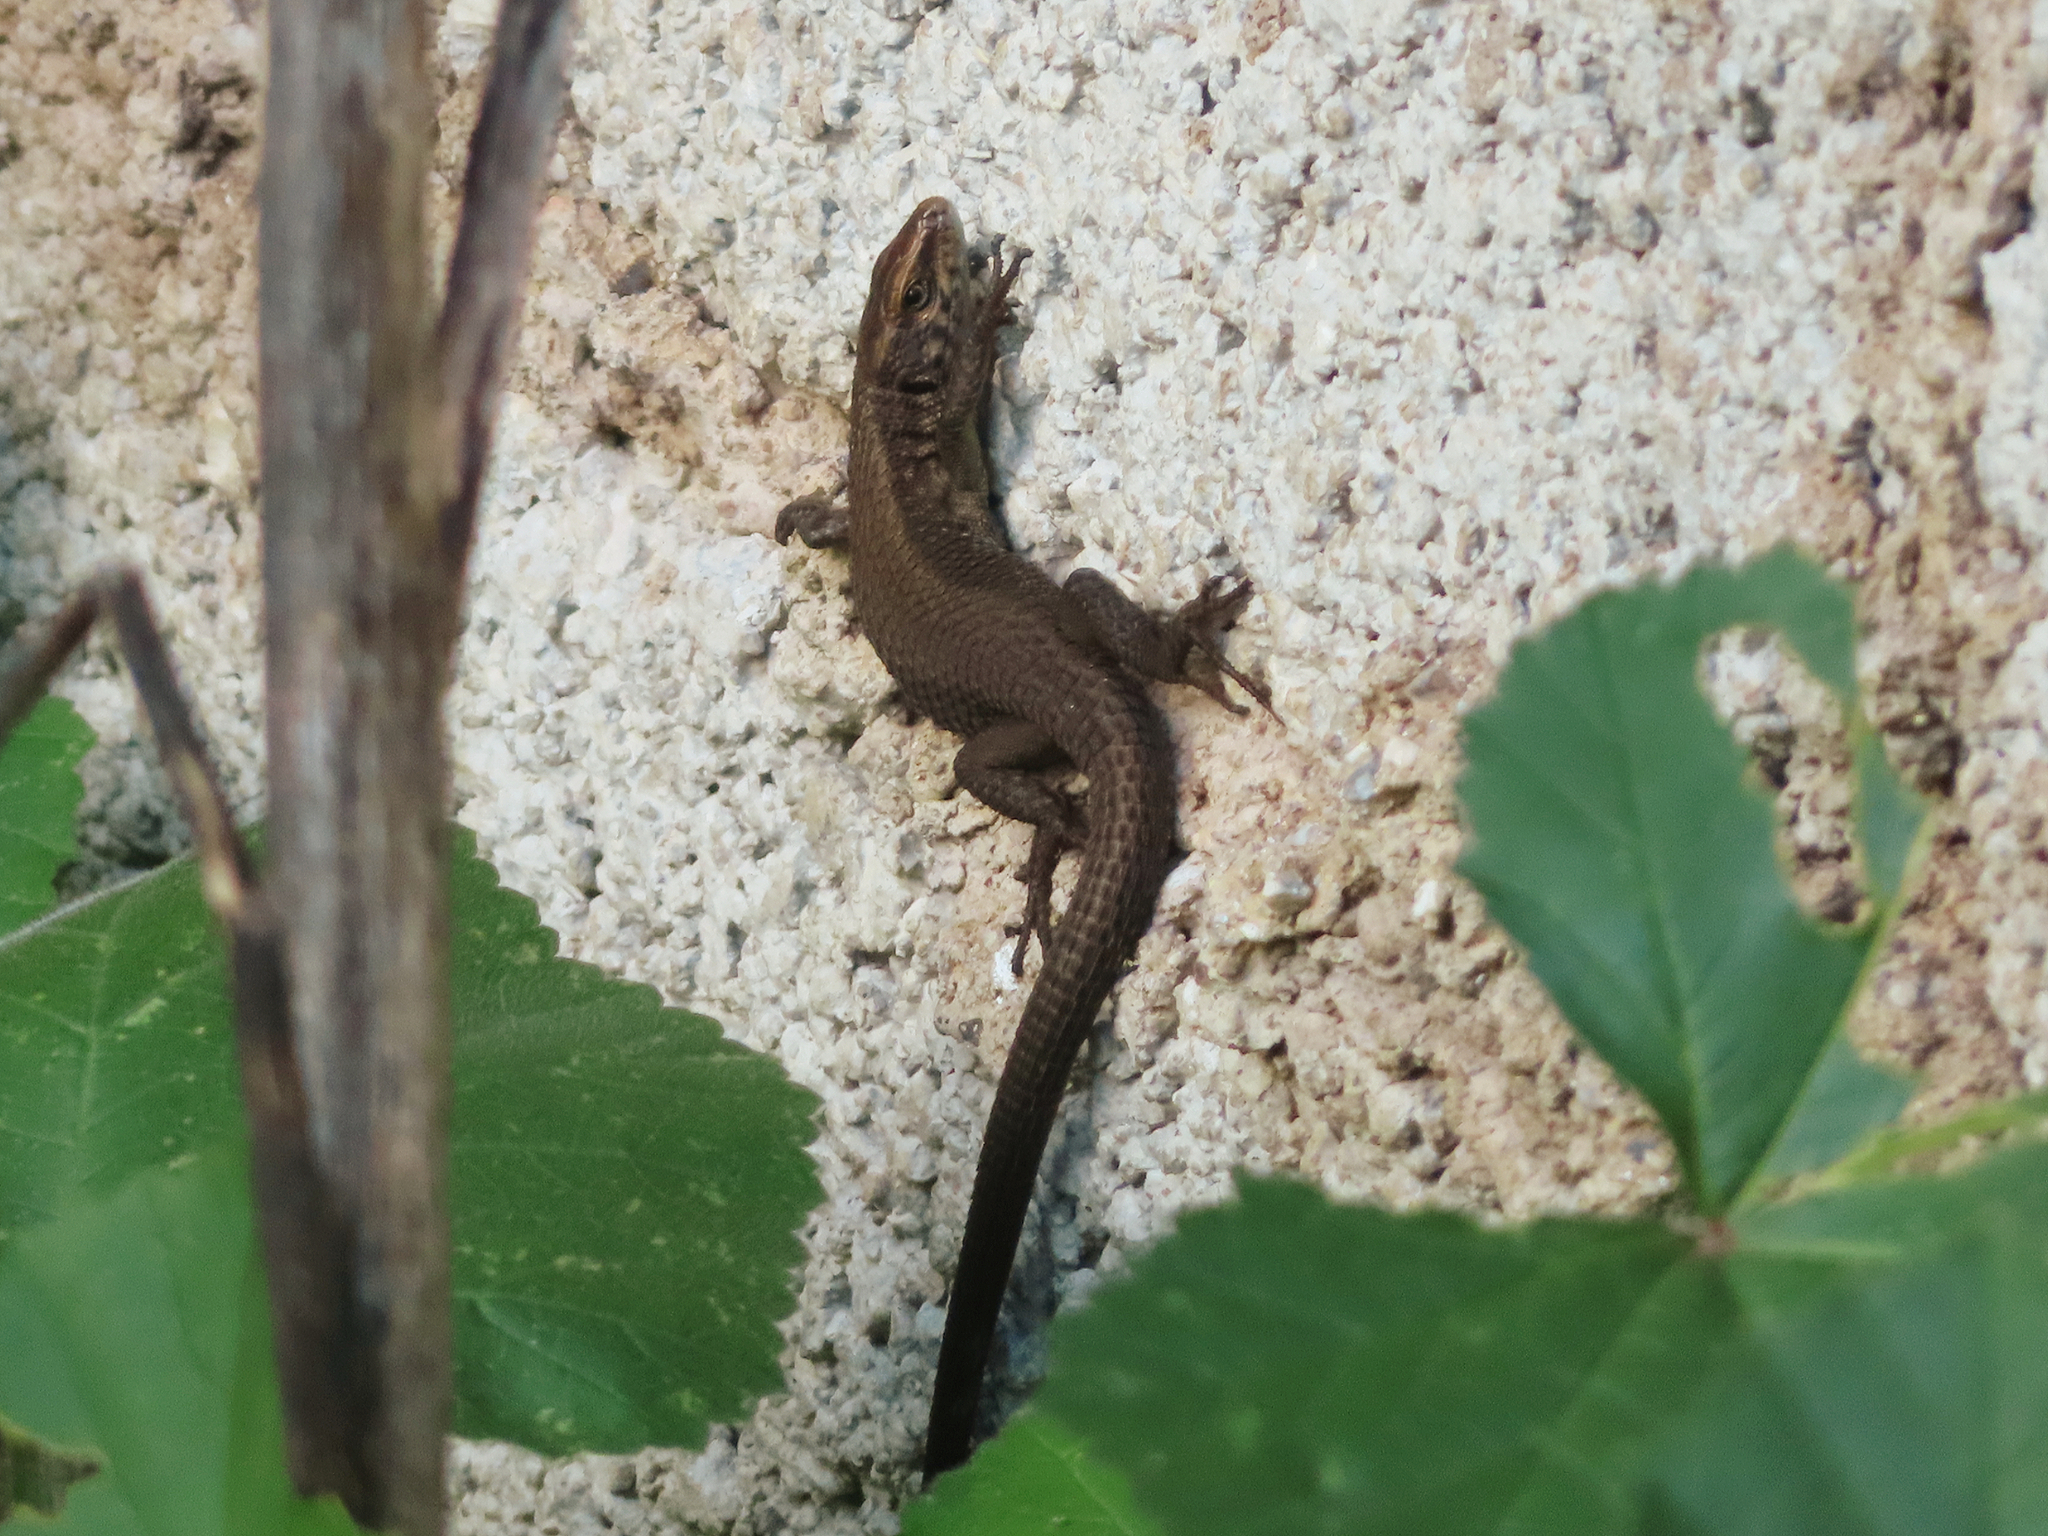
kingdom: Animalia
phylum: Chordata
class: Squamata
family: Lacertidae
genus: Algyroides
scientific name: Algyroides moreoticus
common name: Greek algyroides
